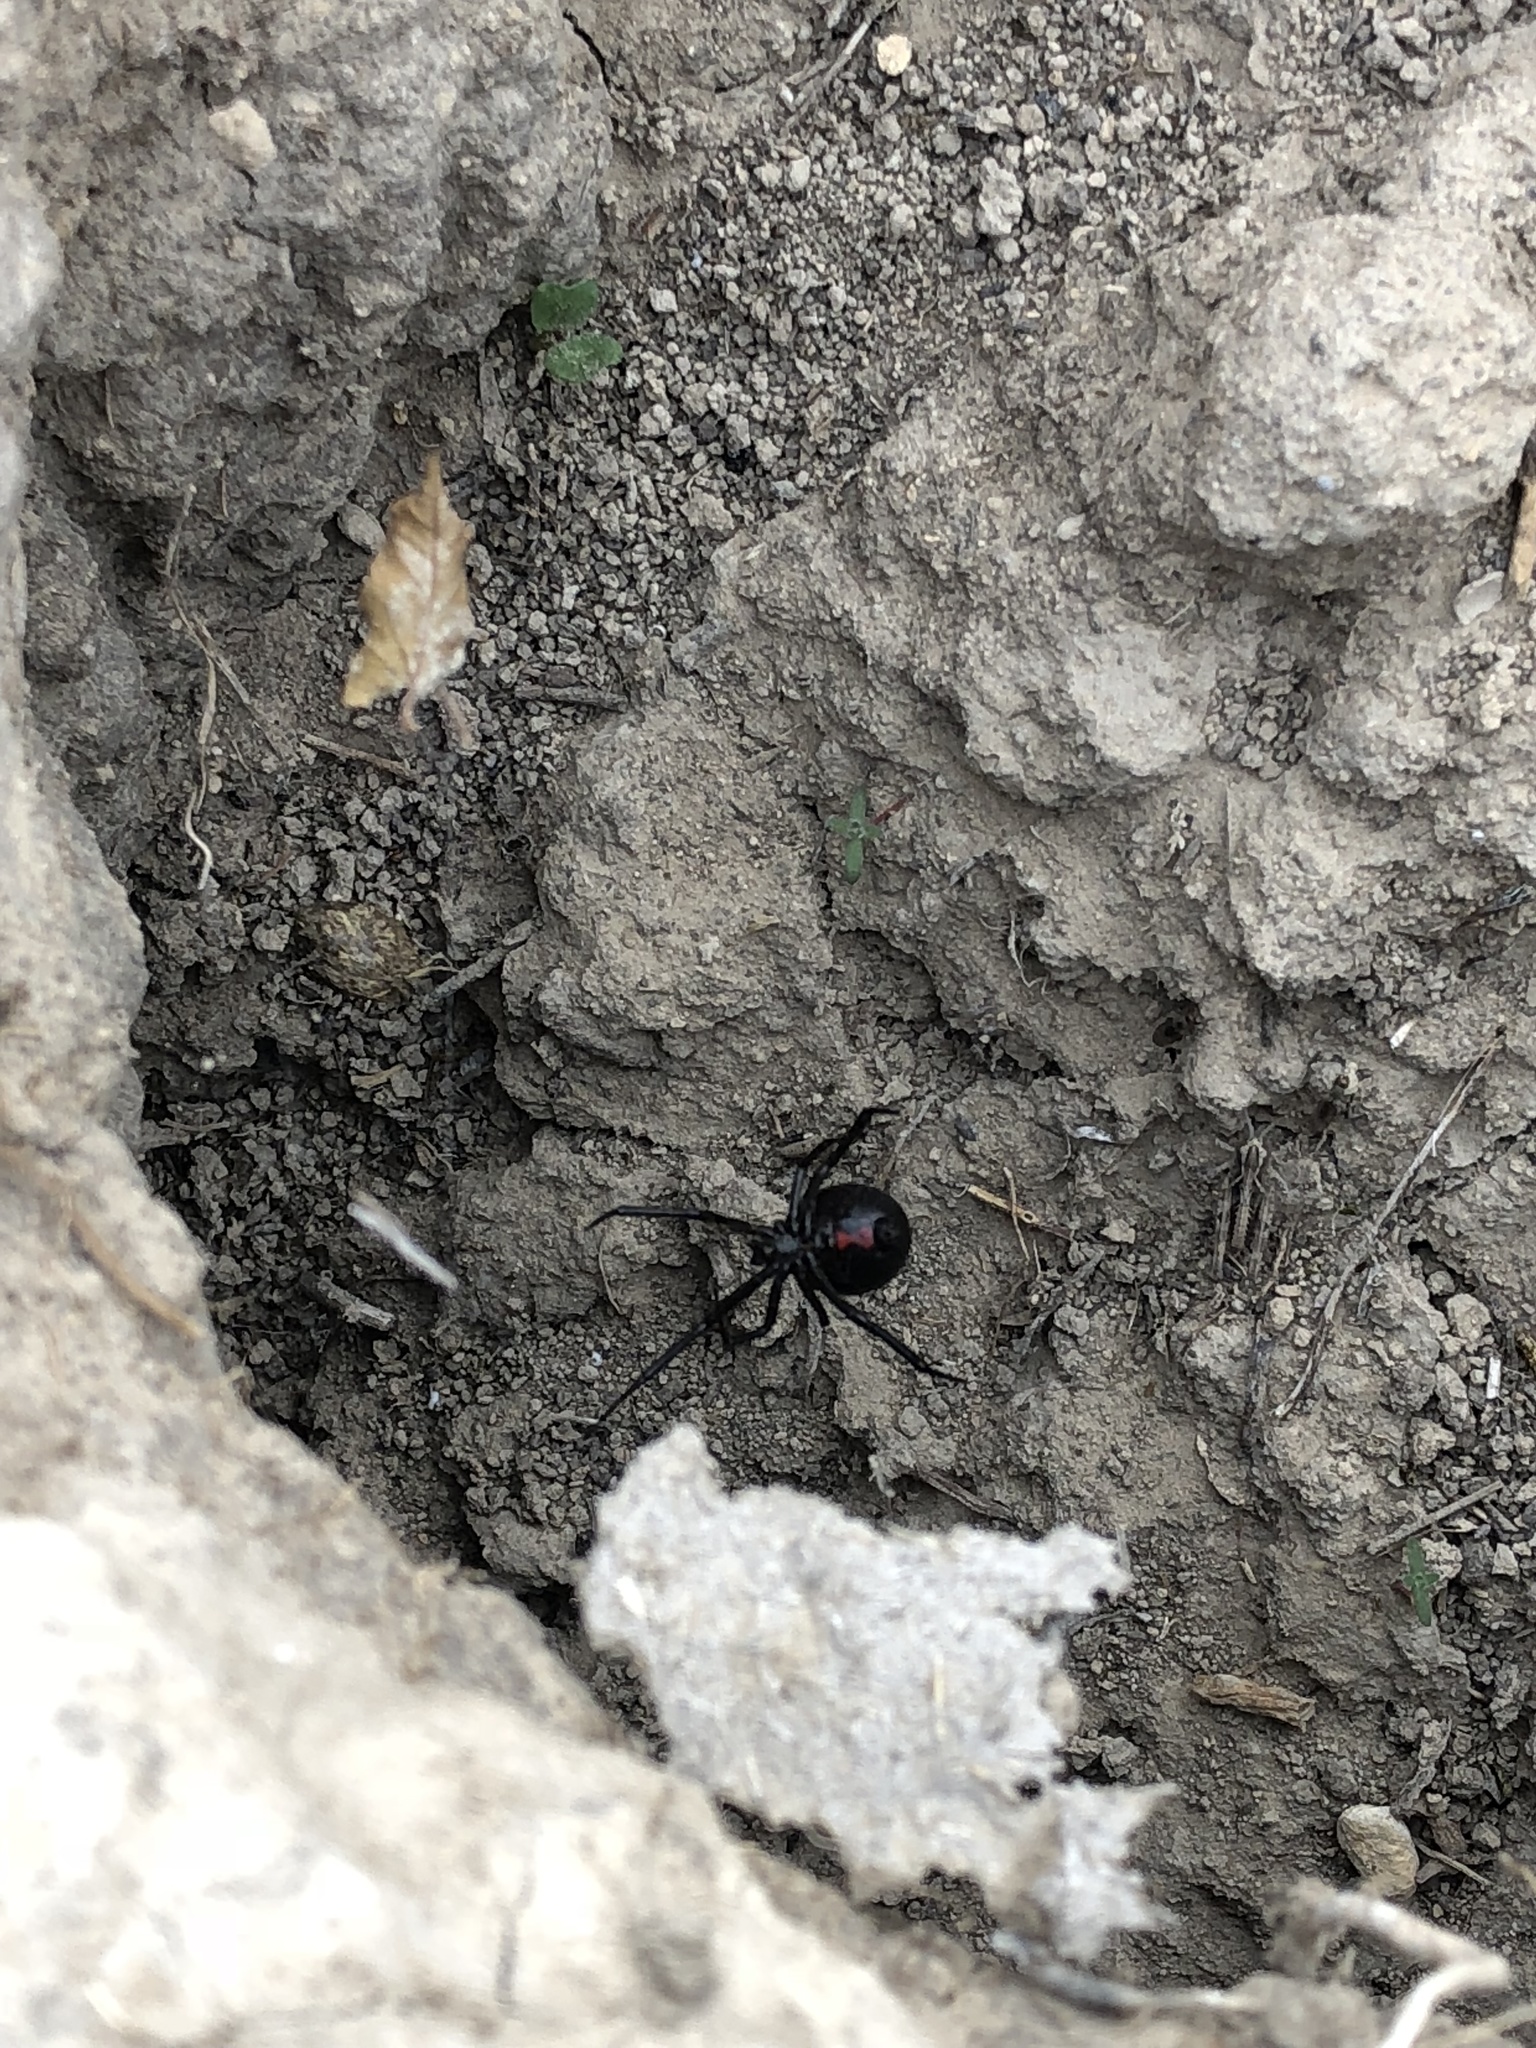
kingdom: Animalia
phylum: Arthropoda
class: Arachnida
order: Araneae
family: Theridiidae
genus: Latrodectus
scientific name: Latrodectus hesperus
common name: Western black widow
